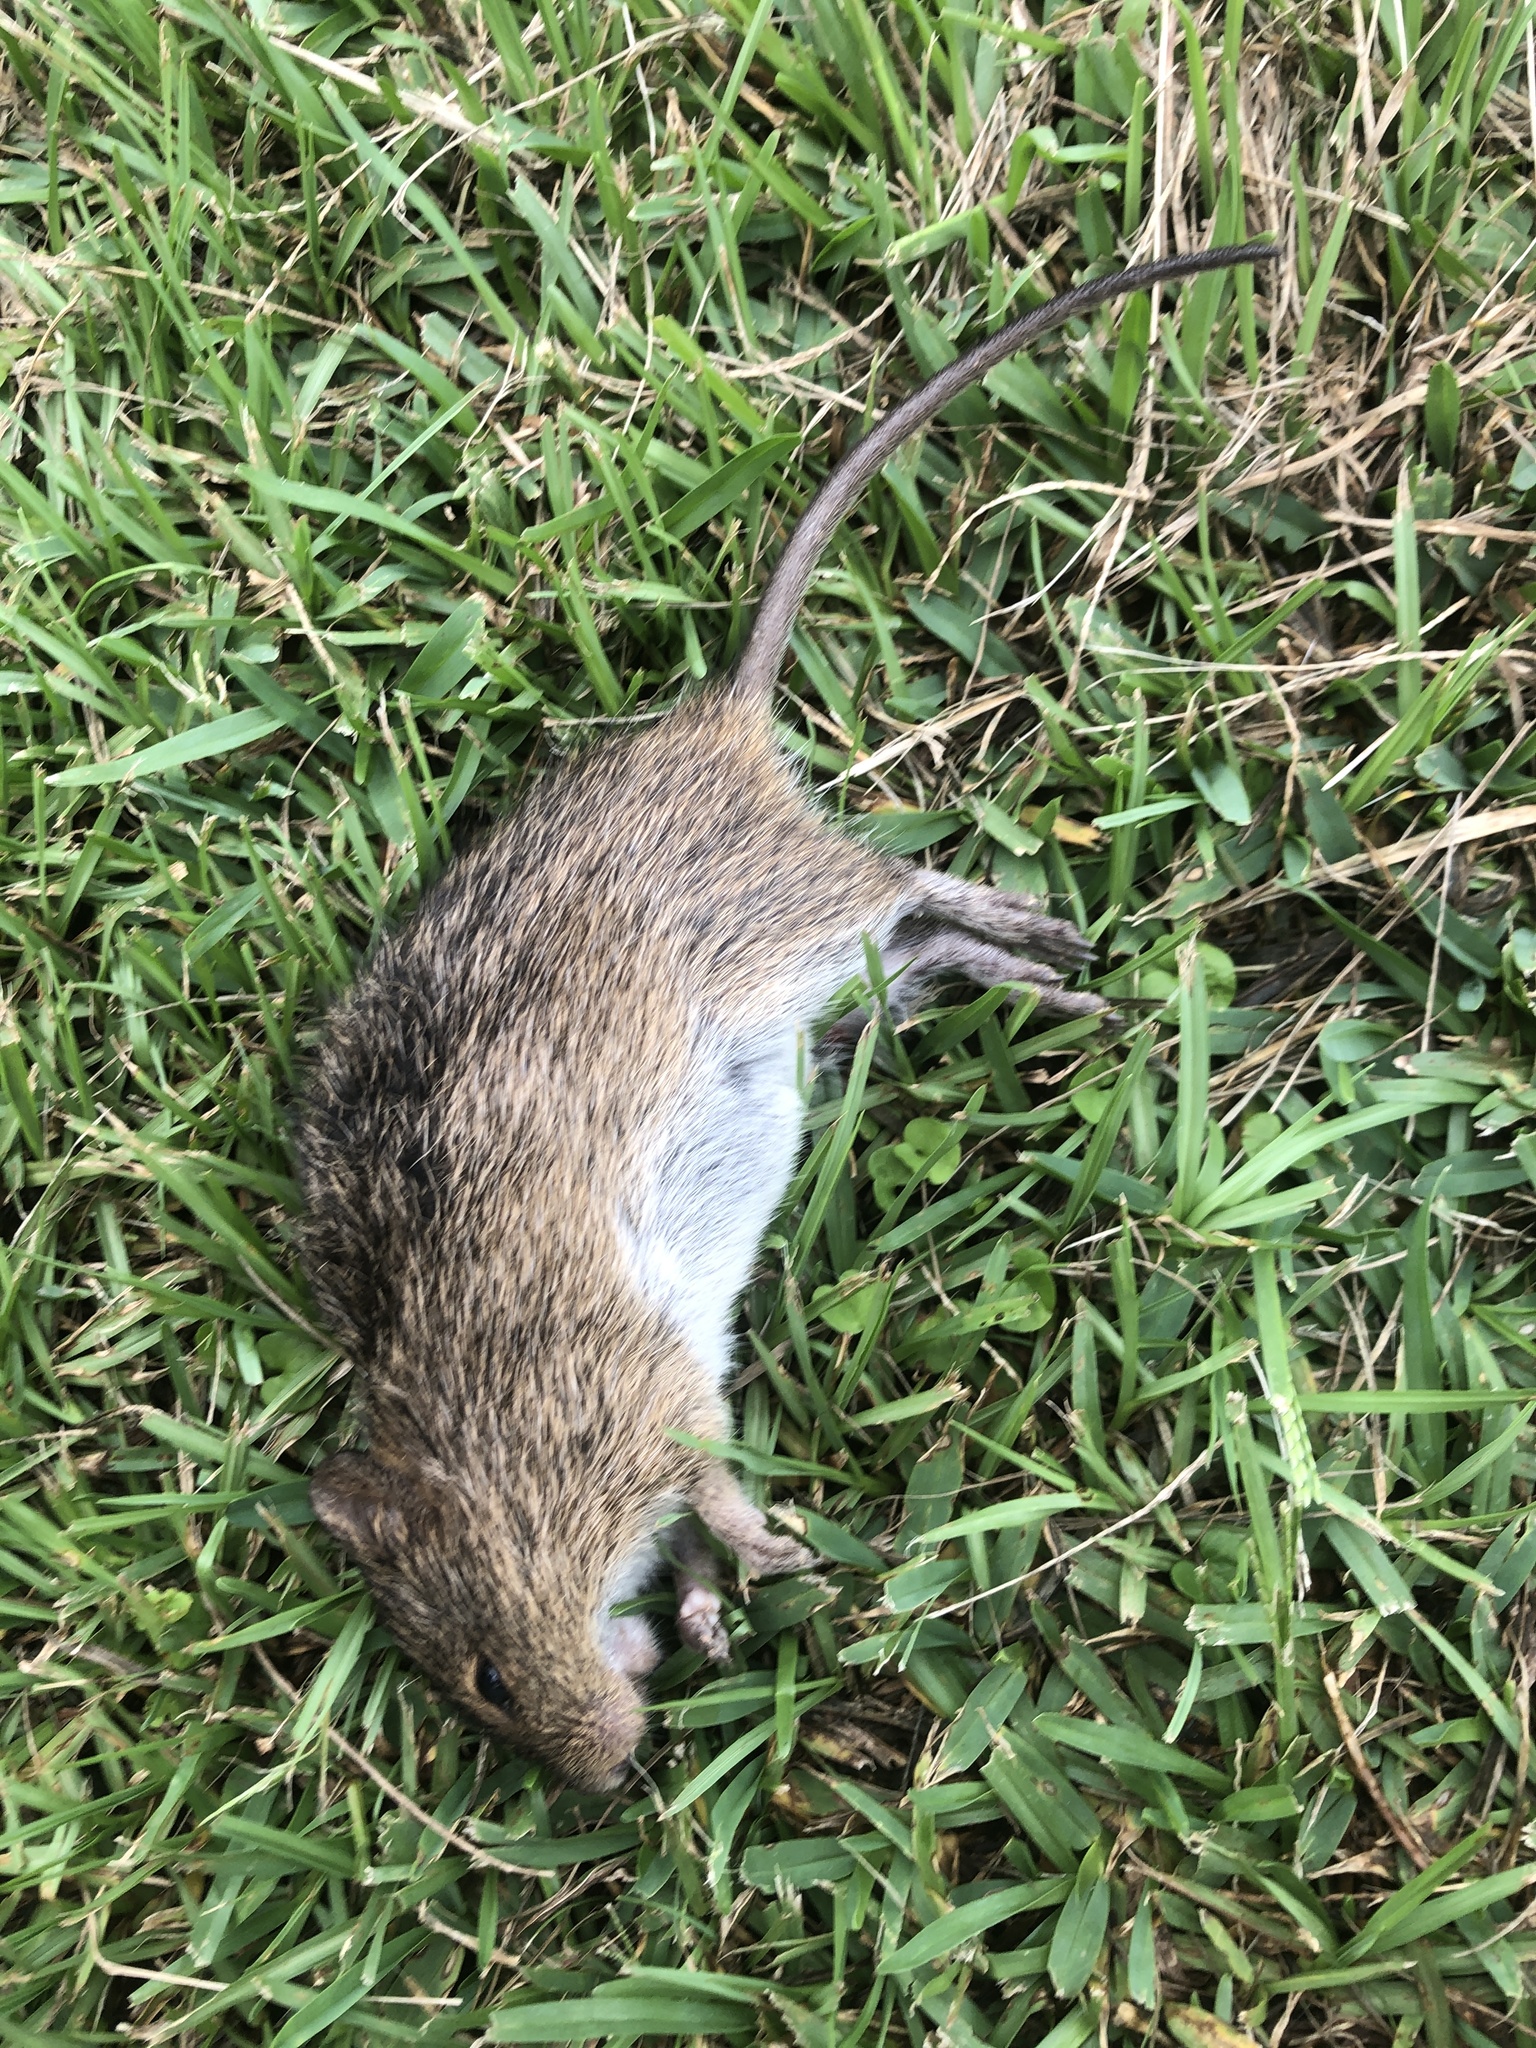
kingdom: Animalia
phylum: Chordata
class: Mammalia
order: Rodentia
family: Cricetidae
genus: Sigmodon
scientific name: Sigmodon hispidus
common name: Hispid cotton rat
